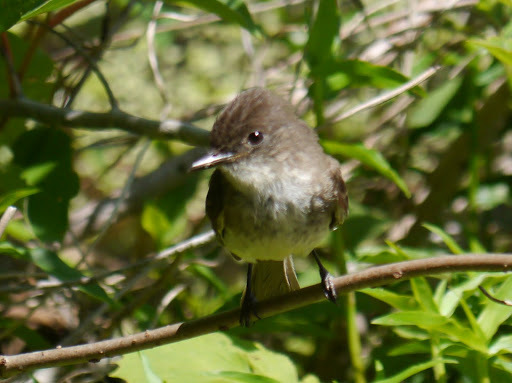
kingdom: Animalia
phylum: Chordata
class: Aves
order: Passeriformes
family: Tyrannidae
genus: Sayornis
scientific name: Sayornis phoebe
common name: Eastern phoebe
